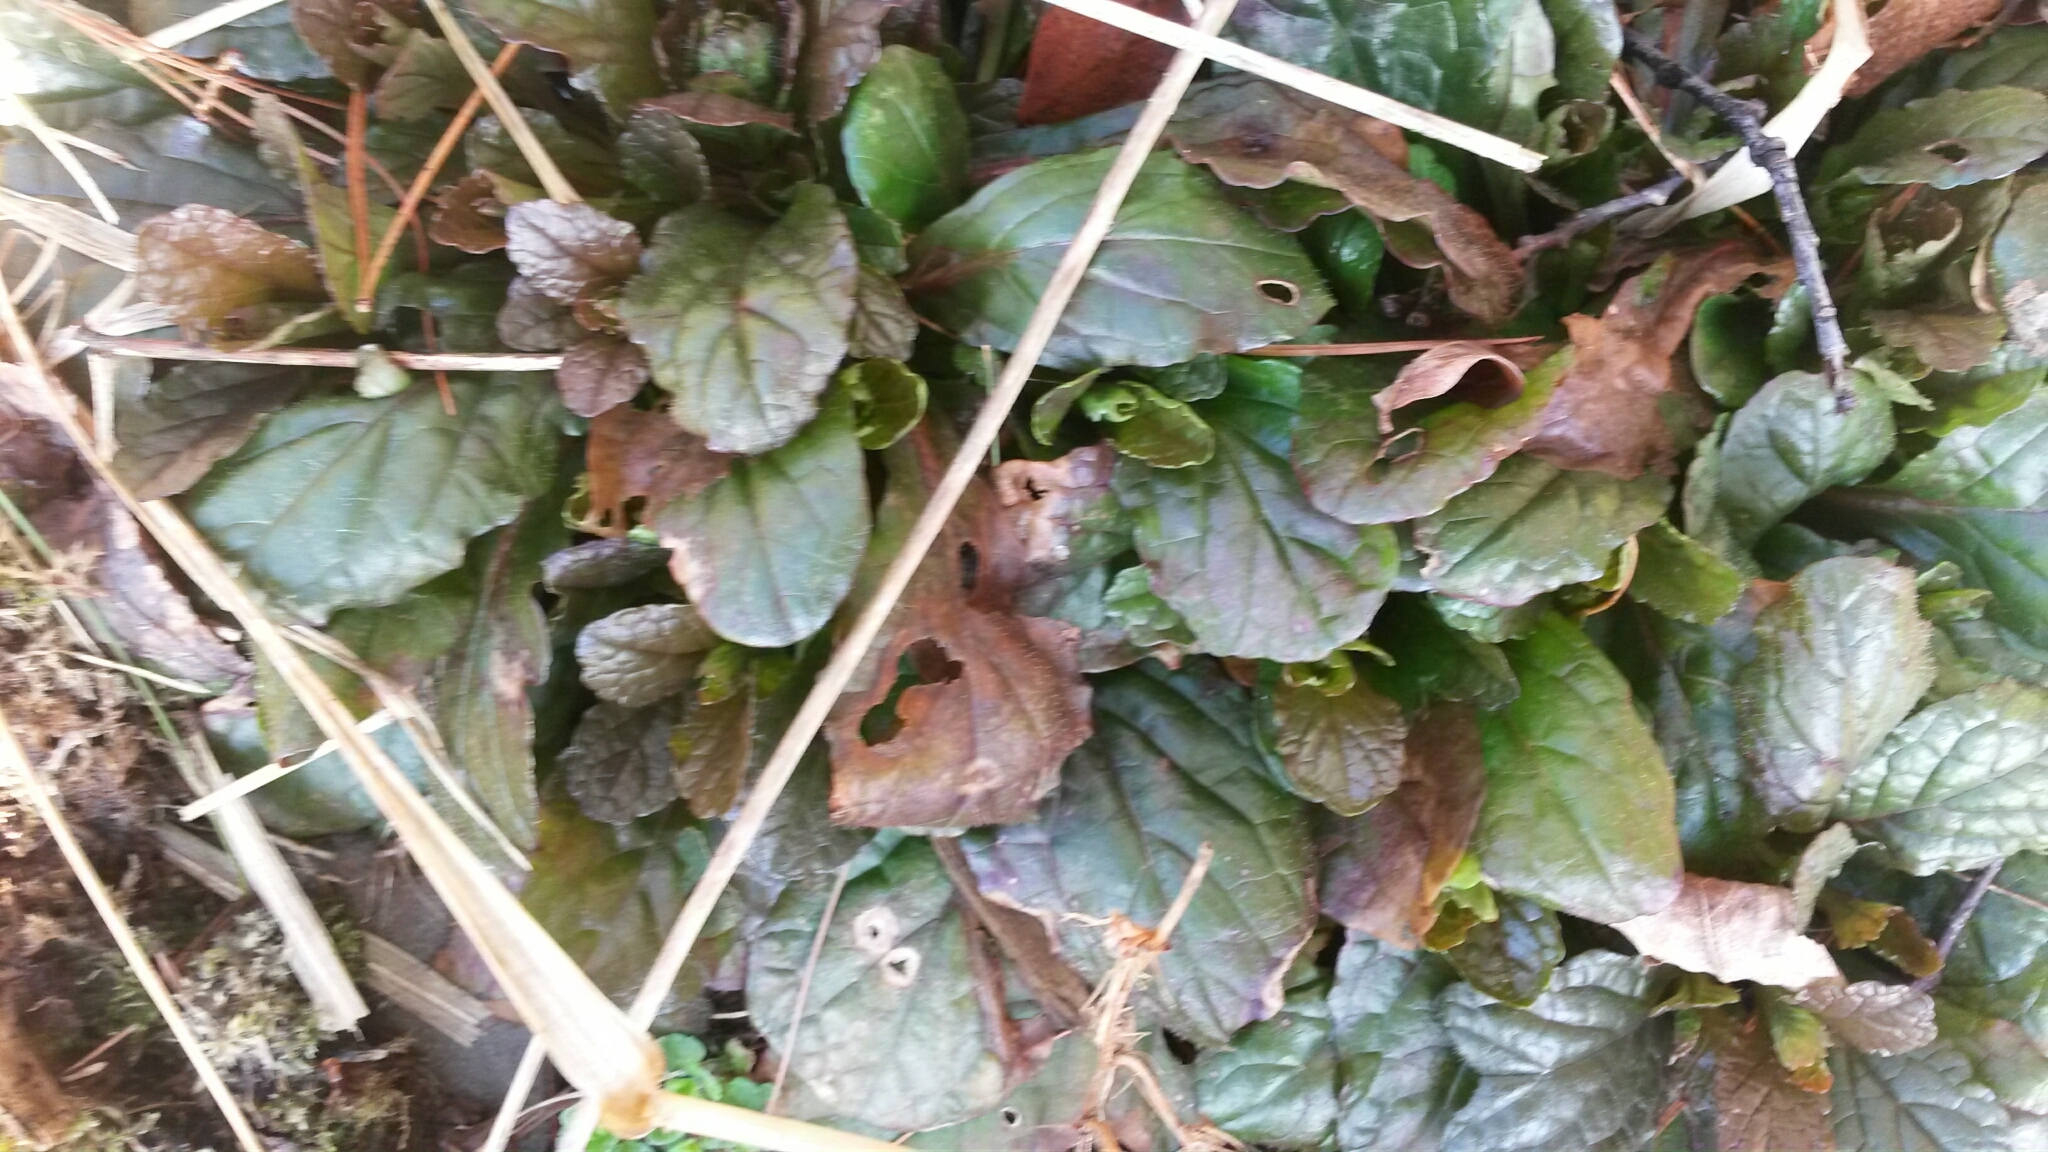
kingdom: Plantae
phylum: Tracheophyta
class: Magnoliopsida
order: Lamiales
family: Lamiaceae
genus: Ajuga
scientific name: Ajuga reptans
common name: Bugle
